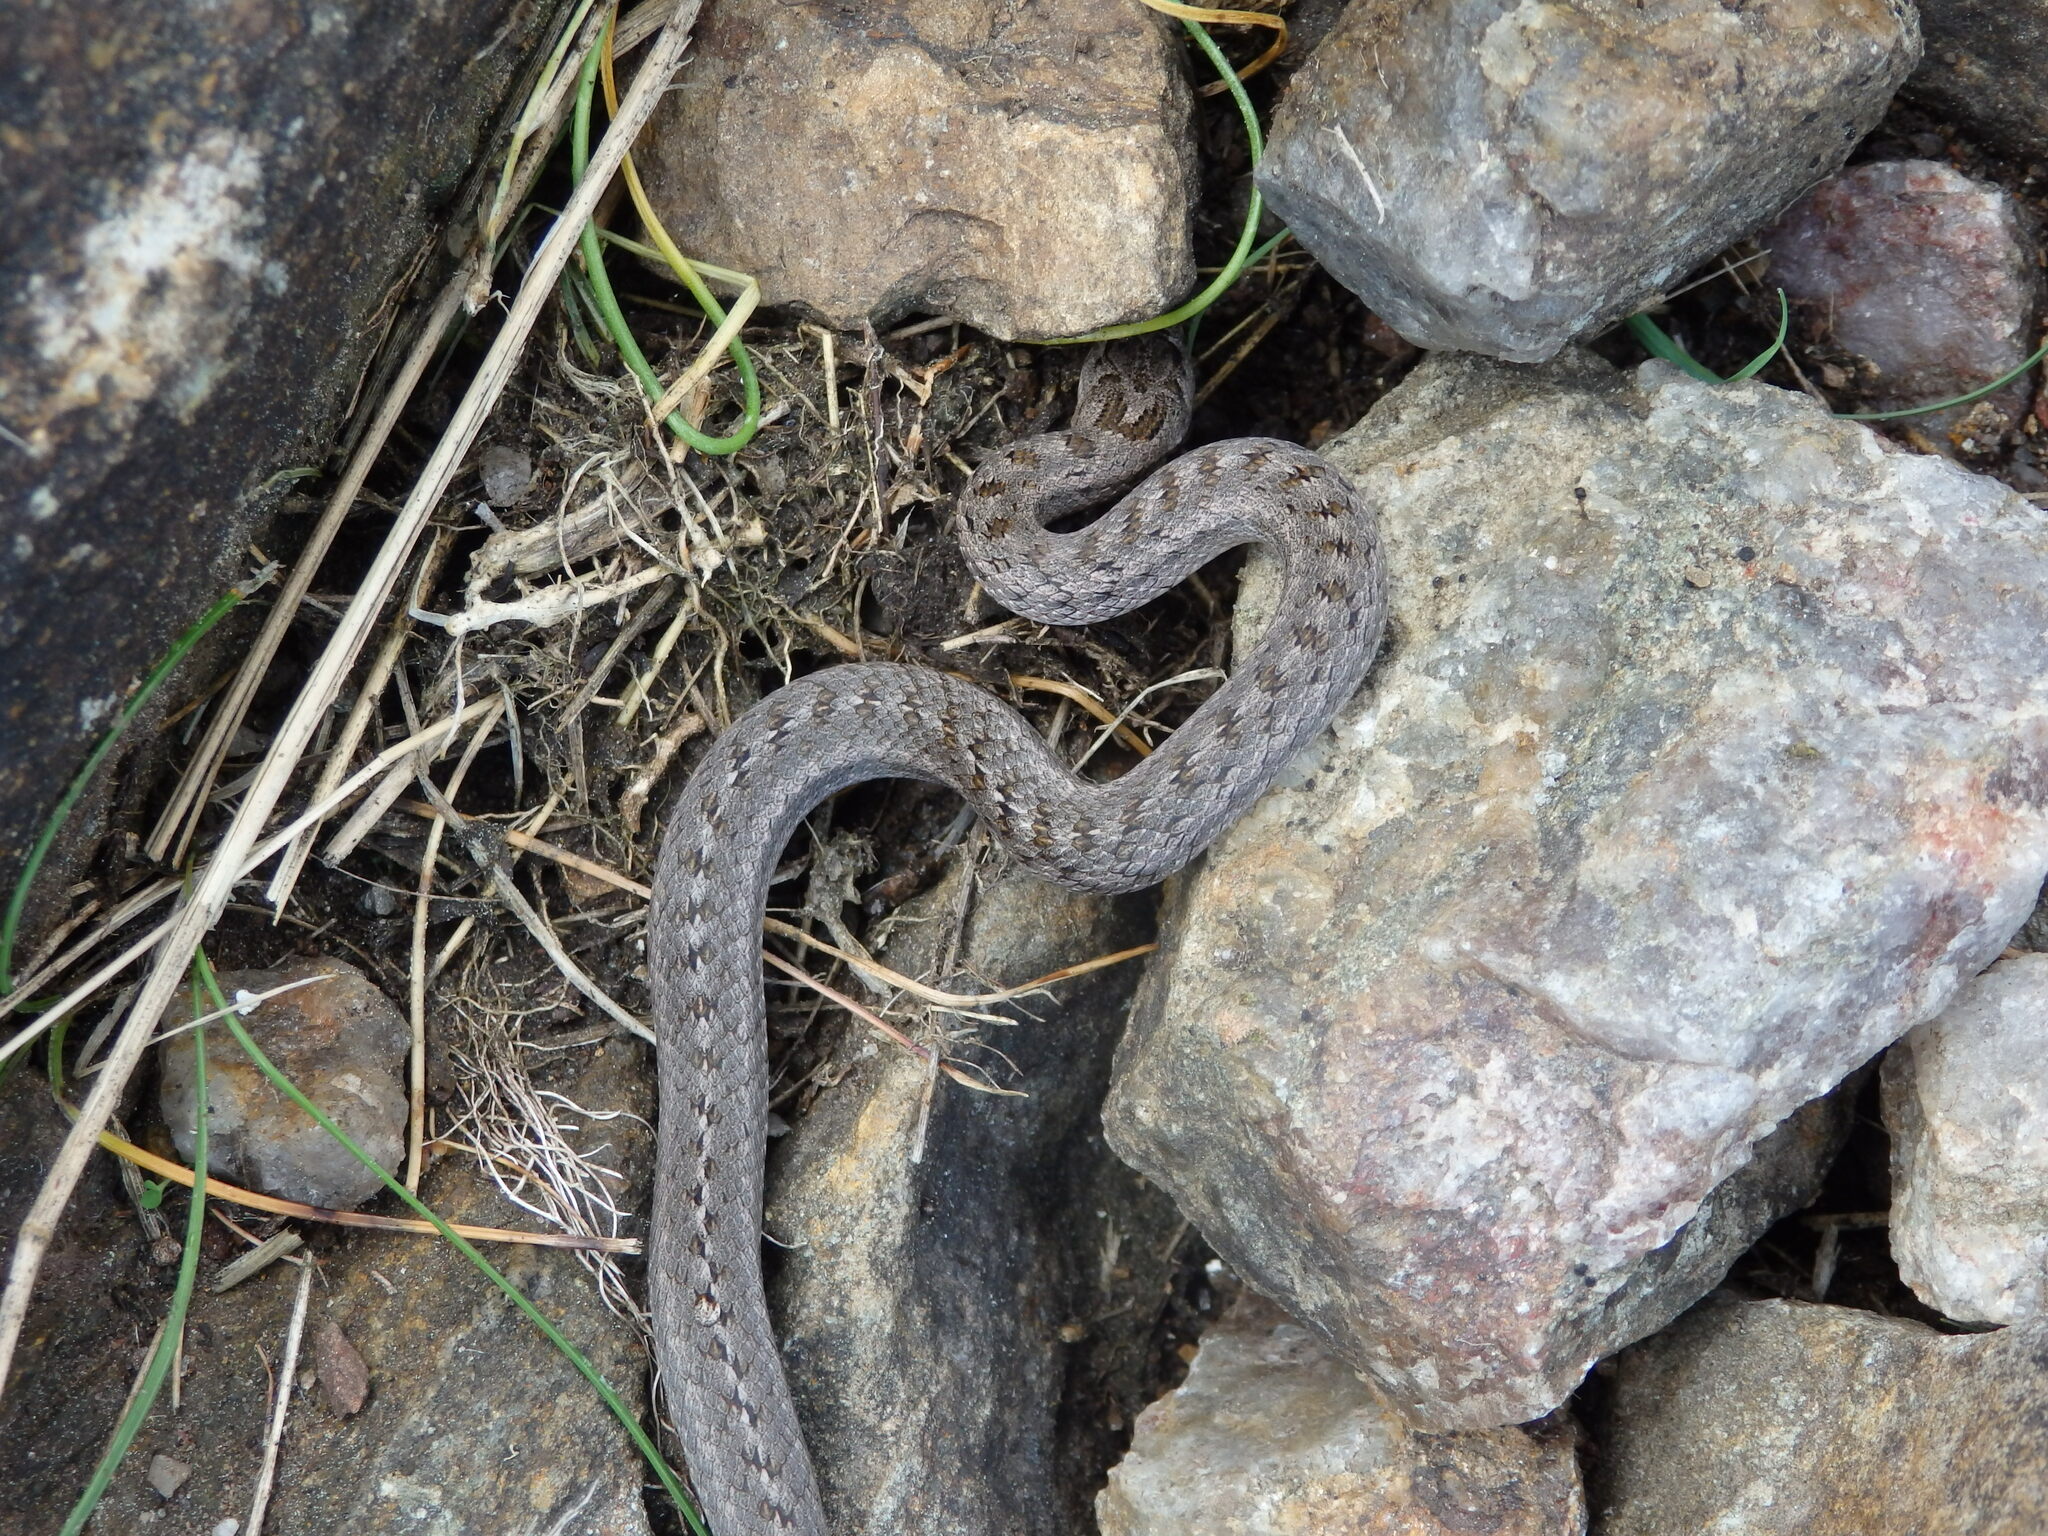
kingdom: Animalia
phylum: Chordata
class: Squamata
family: Colubridae
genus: Coronella
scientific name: Coronella austriaca
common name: Smooth snake
